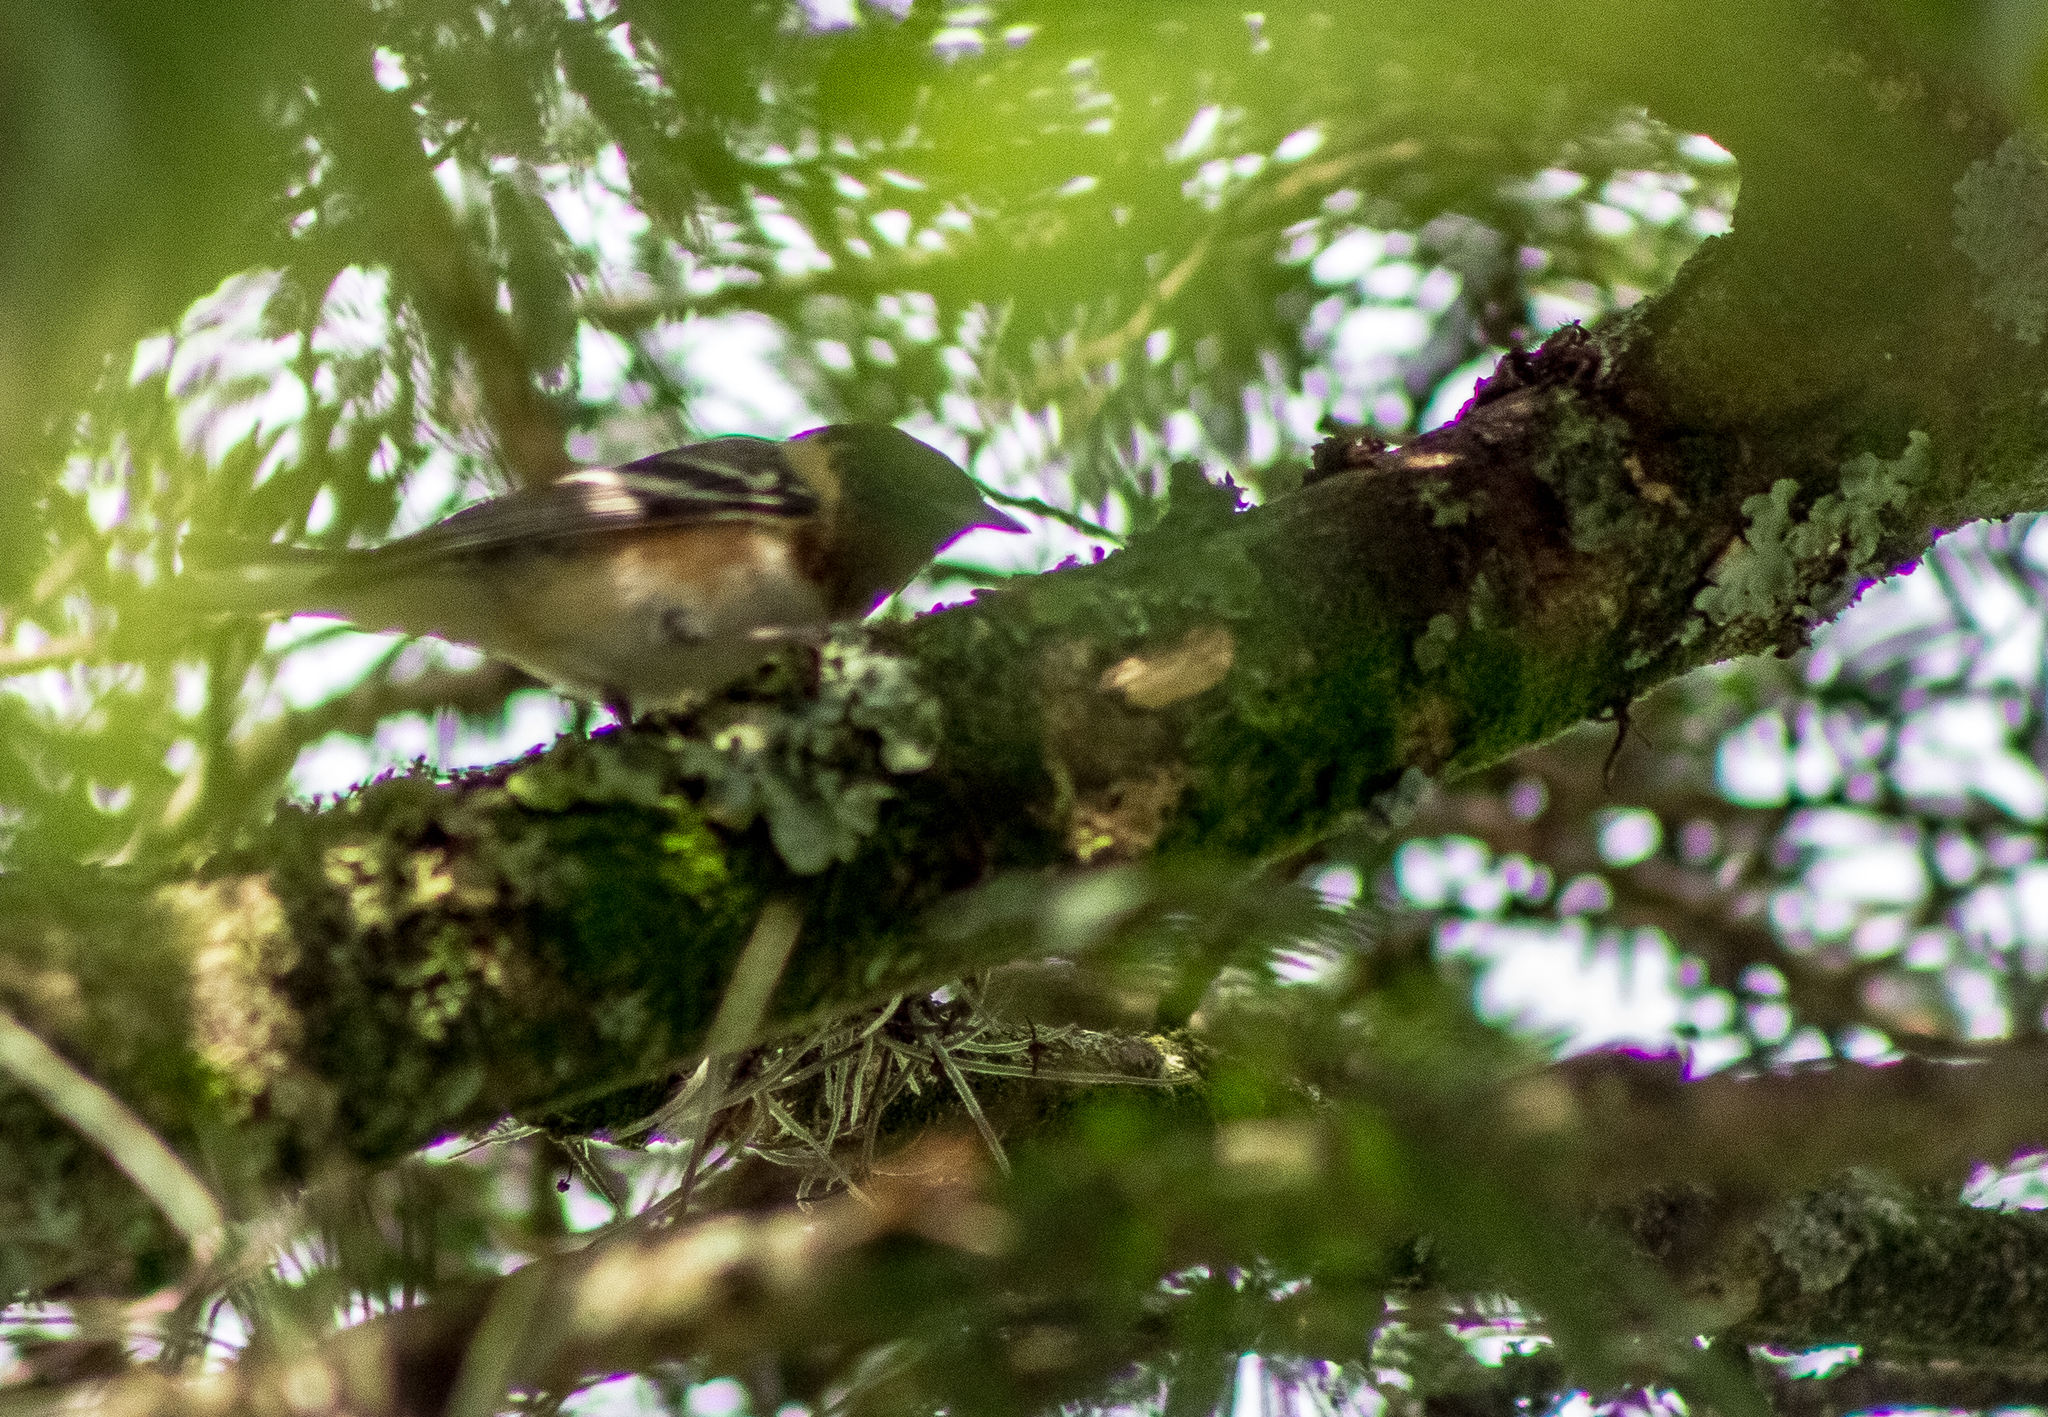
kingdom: Animalia
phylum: Chordata
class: Aves
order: Passeriformes
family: Parulidae
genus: Setophaga
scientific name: Setophaga castanea
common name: Bay-breasted warbler
